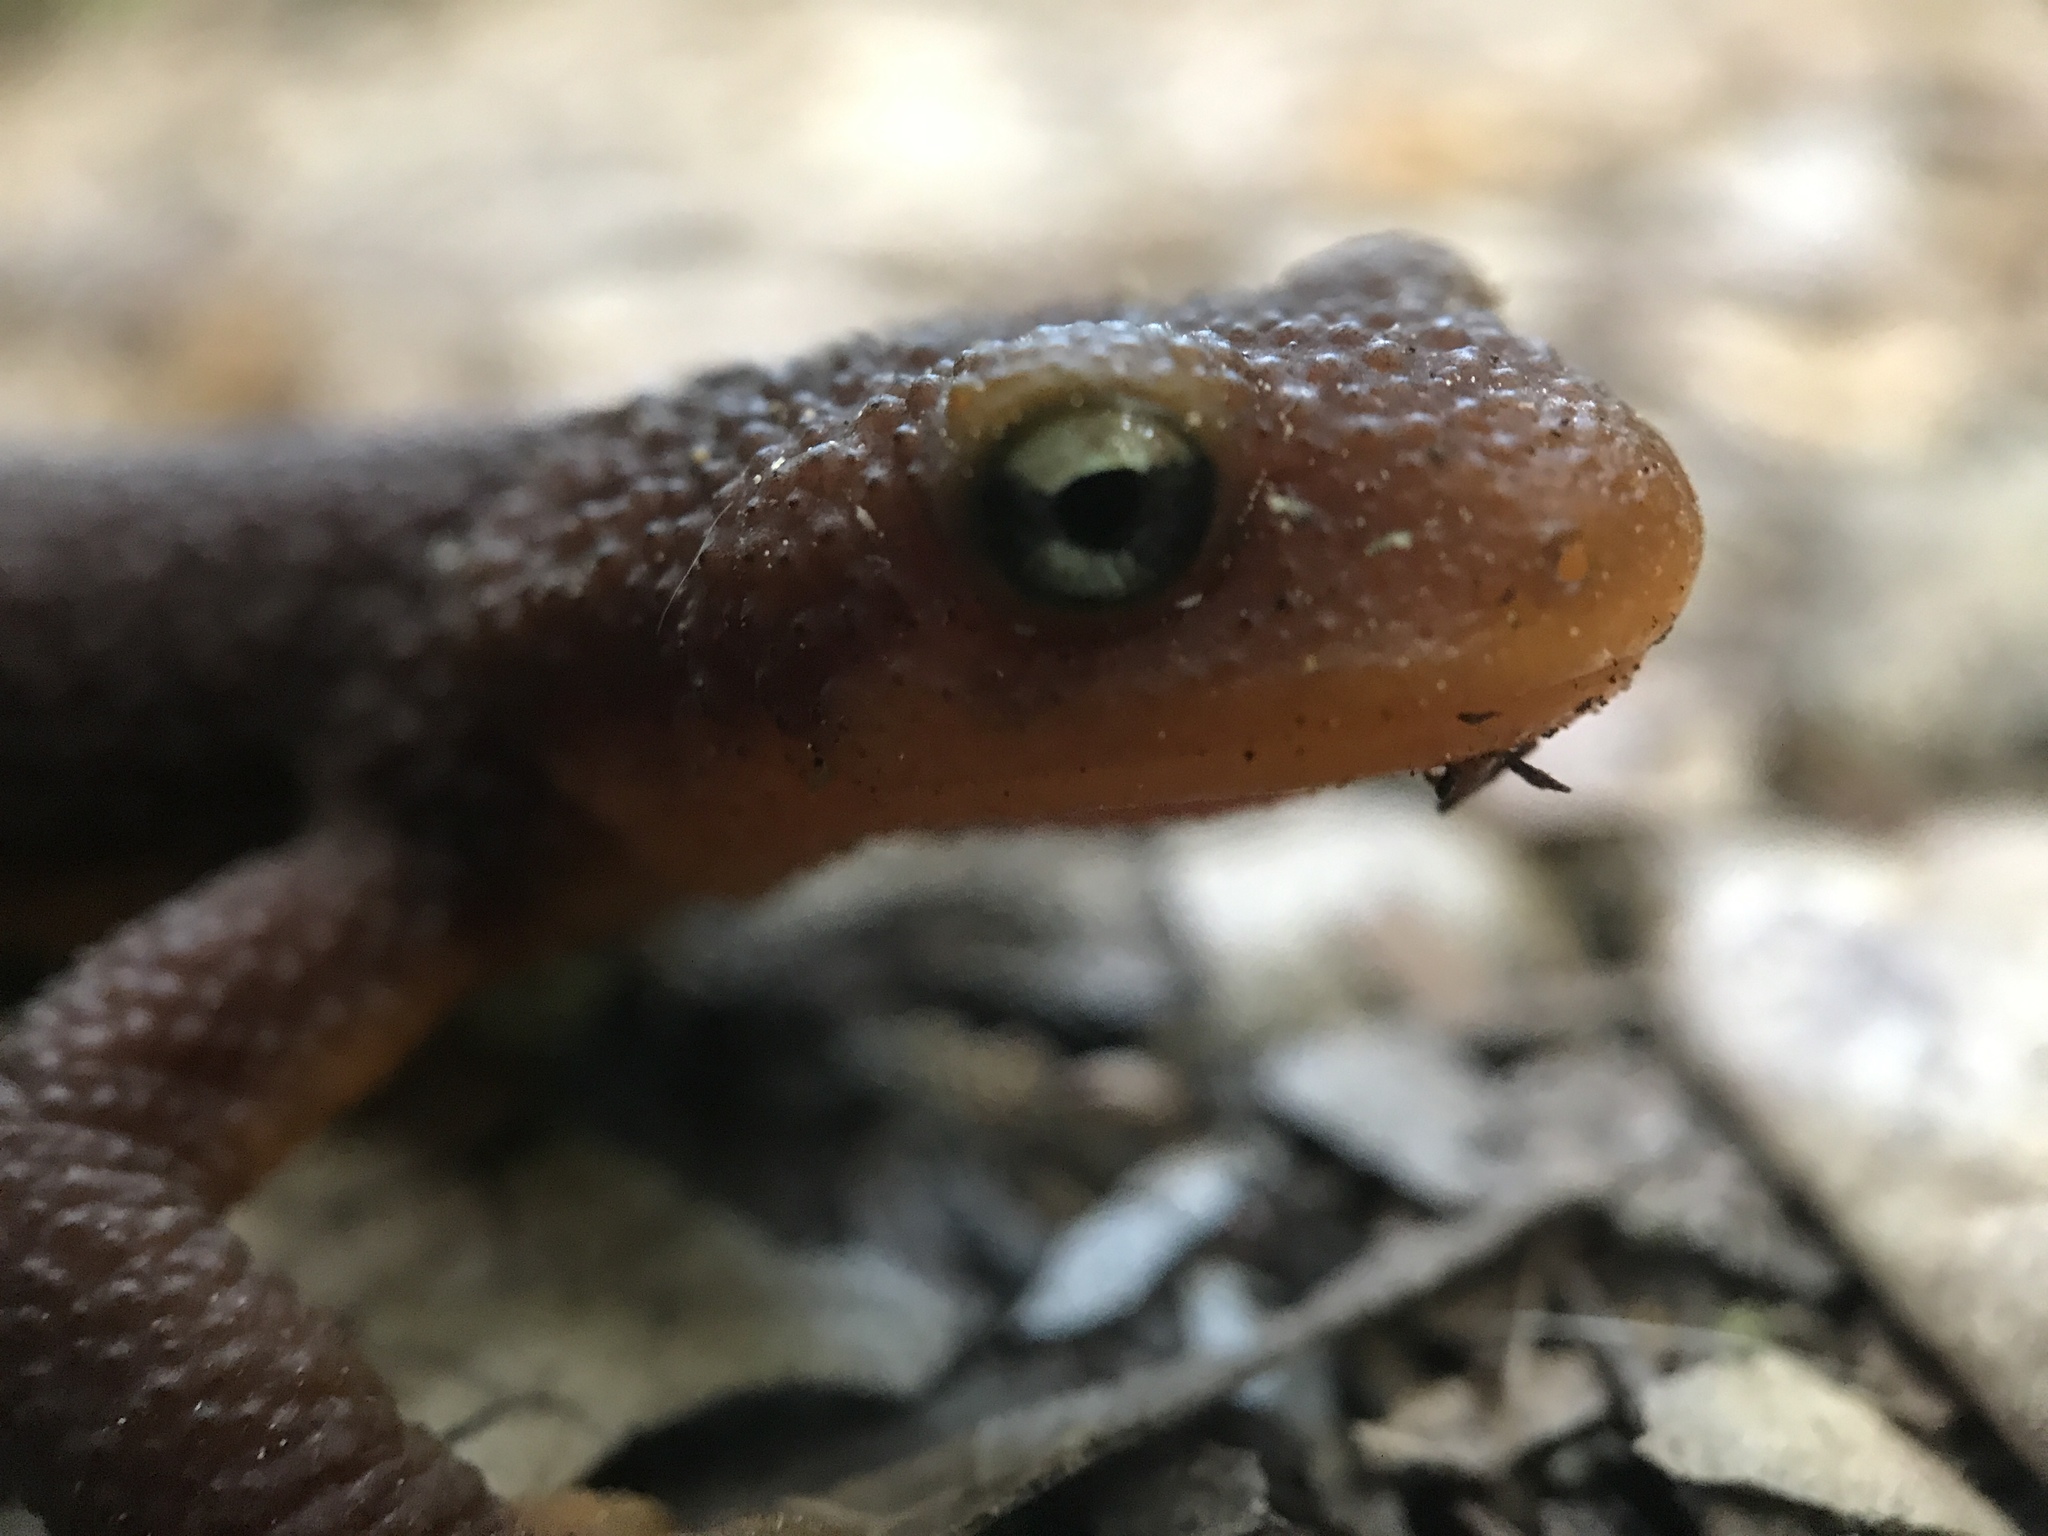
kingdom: Animalia
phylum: Chordata
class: Amphibia
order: Caudata
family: Salamandridae
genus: Taricha
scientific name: Taricha torosa
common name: California newt
